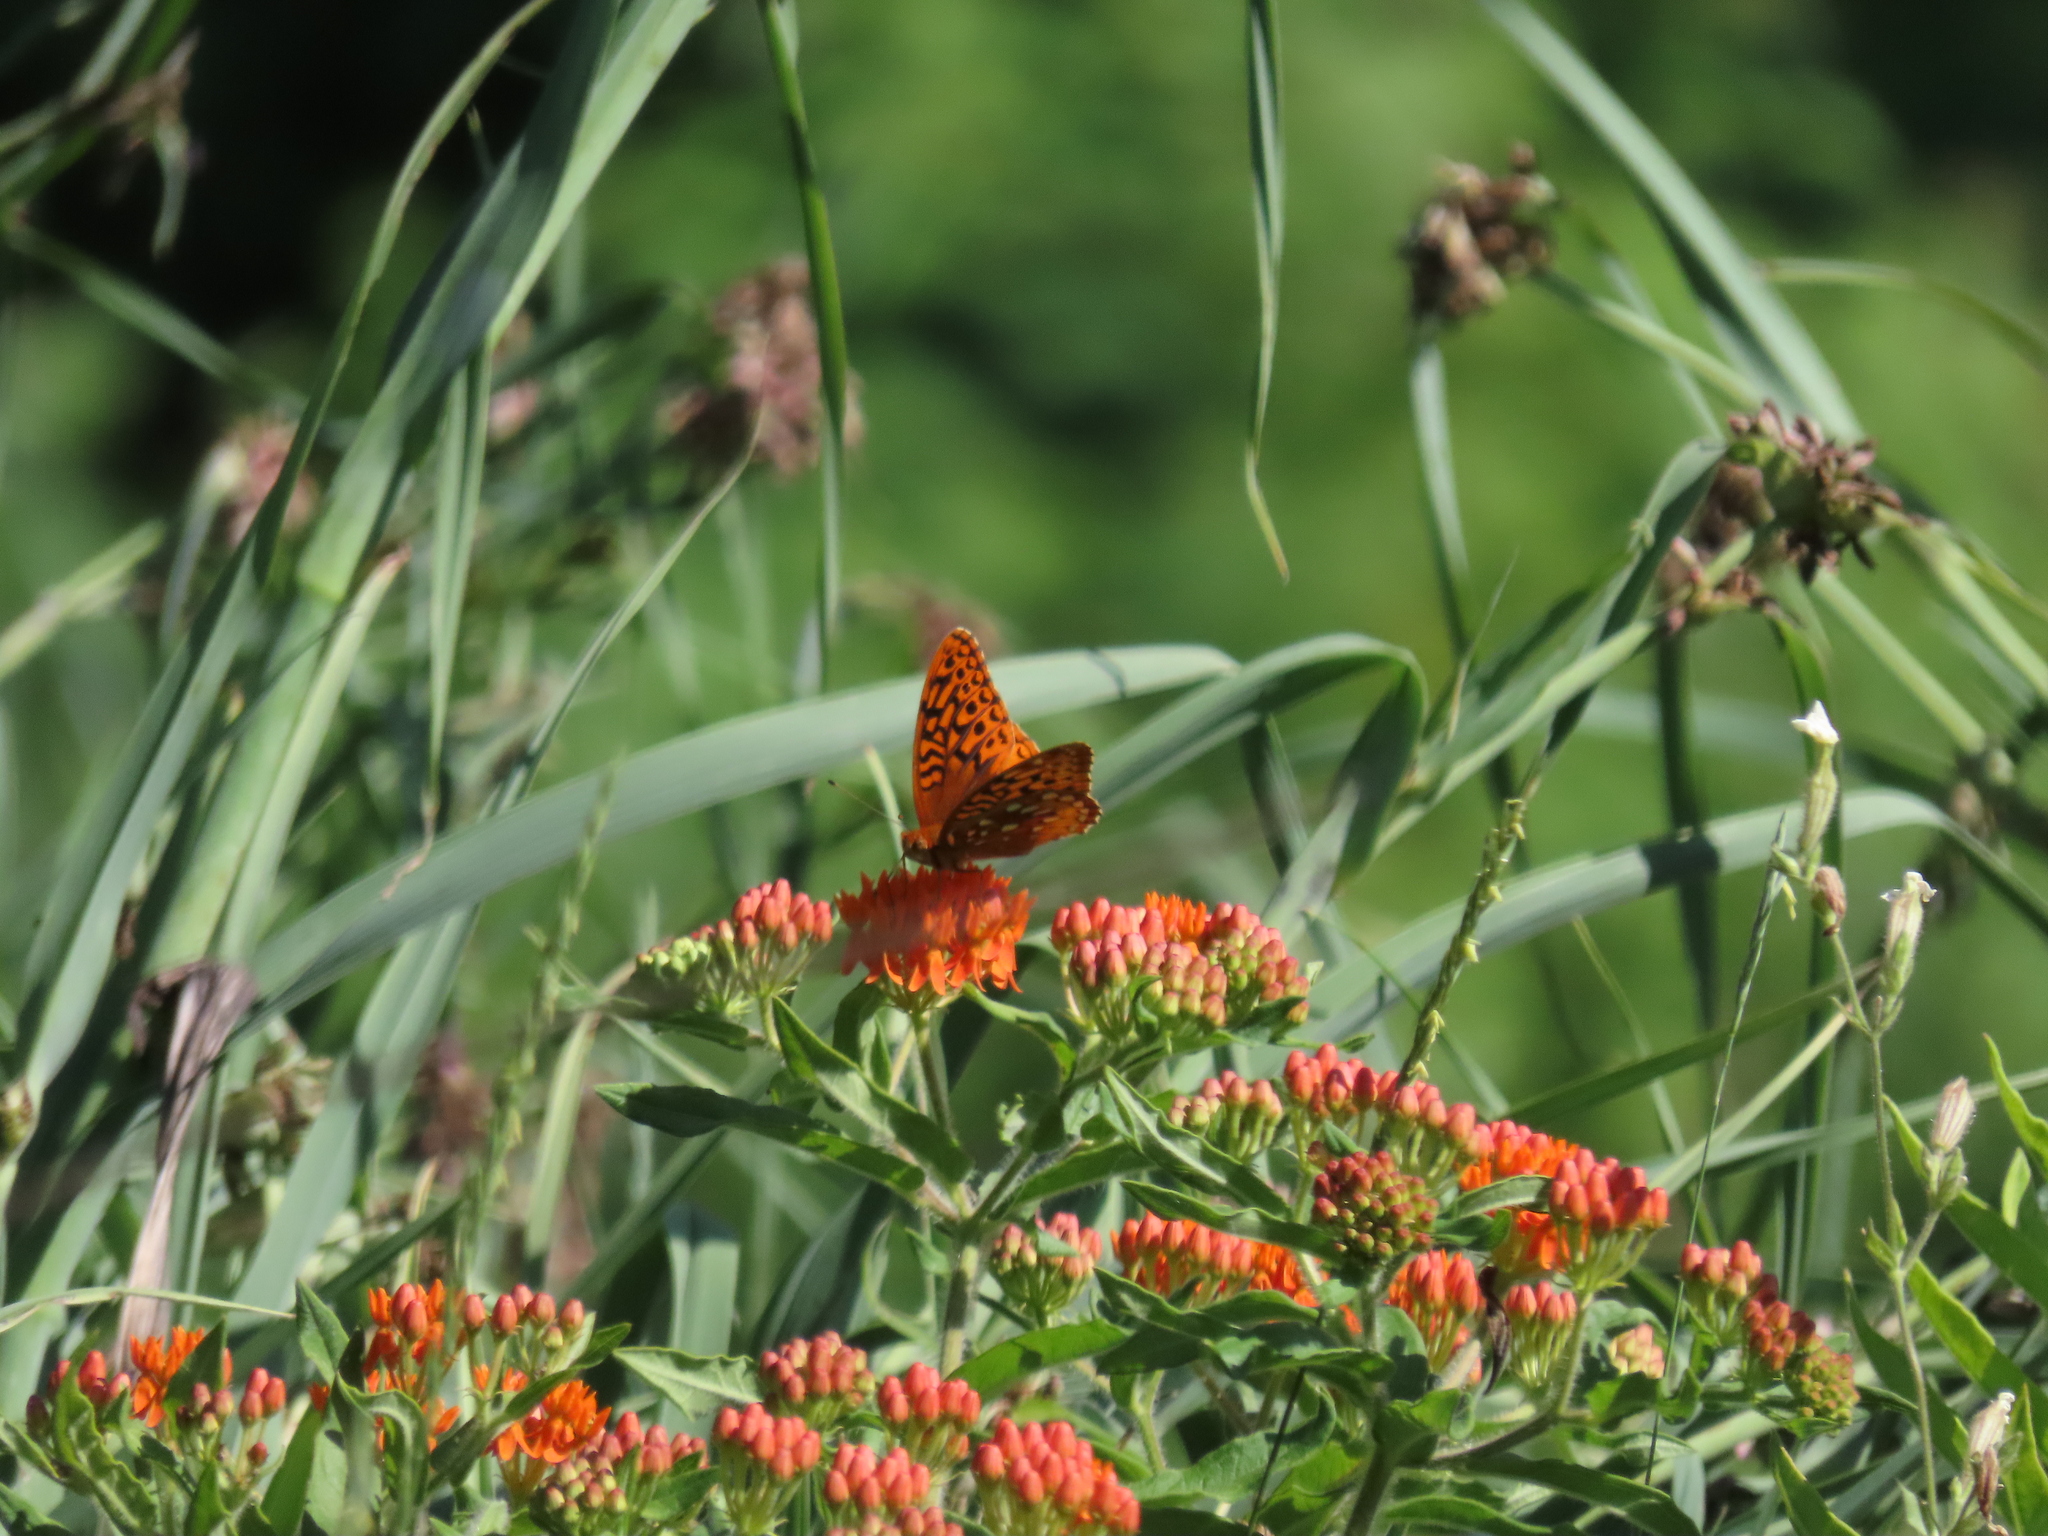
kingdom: Animalia
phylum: Arthropoda
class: Insecta
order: Lepidoptera
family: Nymphalidae
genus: Speyeria
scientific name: Speyeria cybele
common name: Great spangled fritillary
